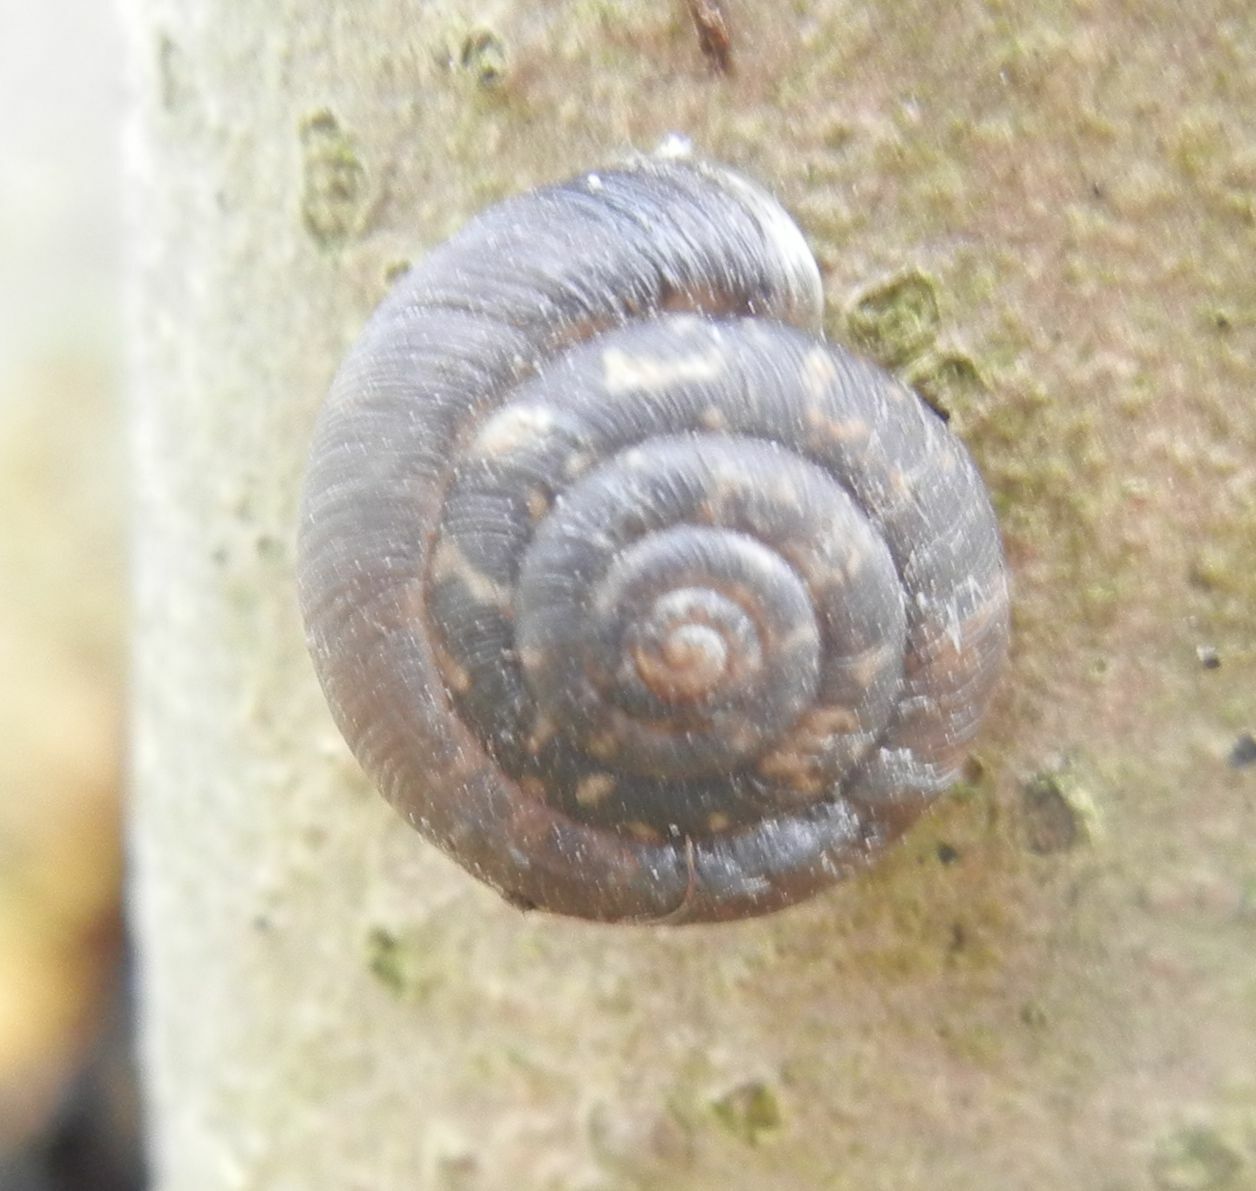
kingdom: Animalia
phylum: Mollusca
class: Gastropoda
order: Stylommatophora
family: Hygromiidae
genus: Trochulus
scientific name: Trochulus striolatus
